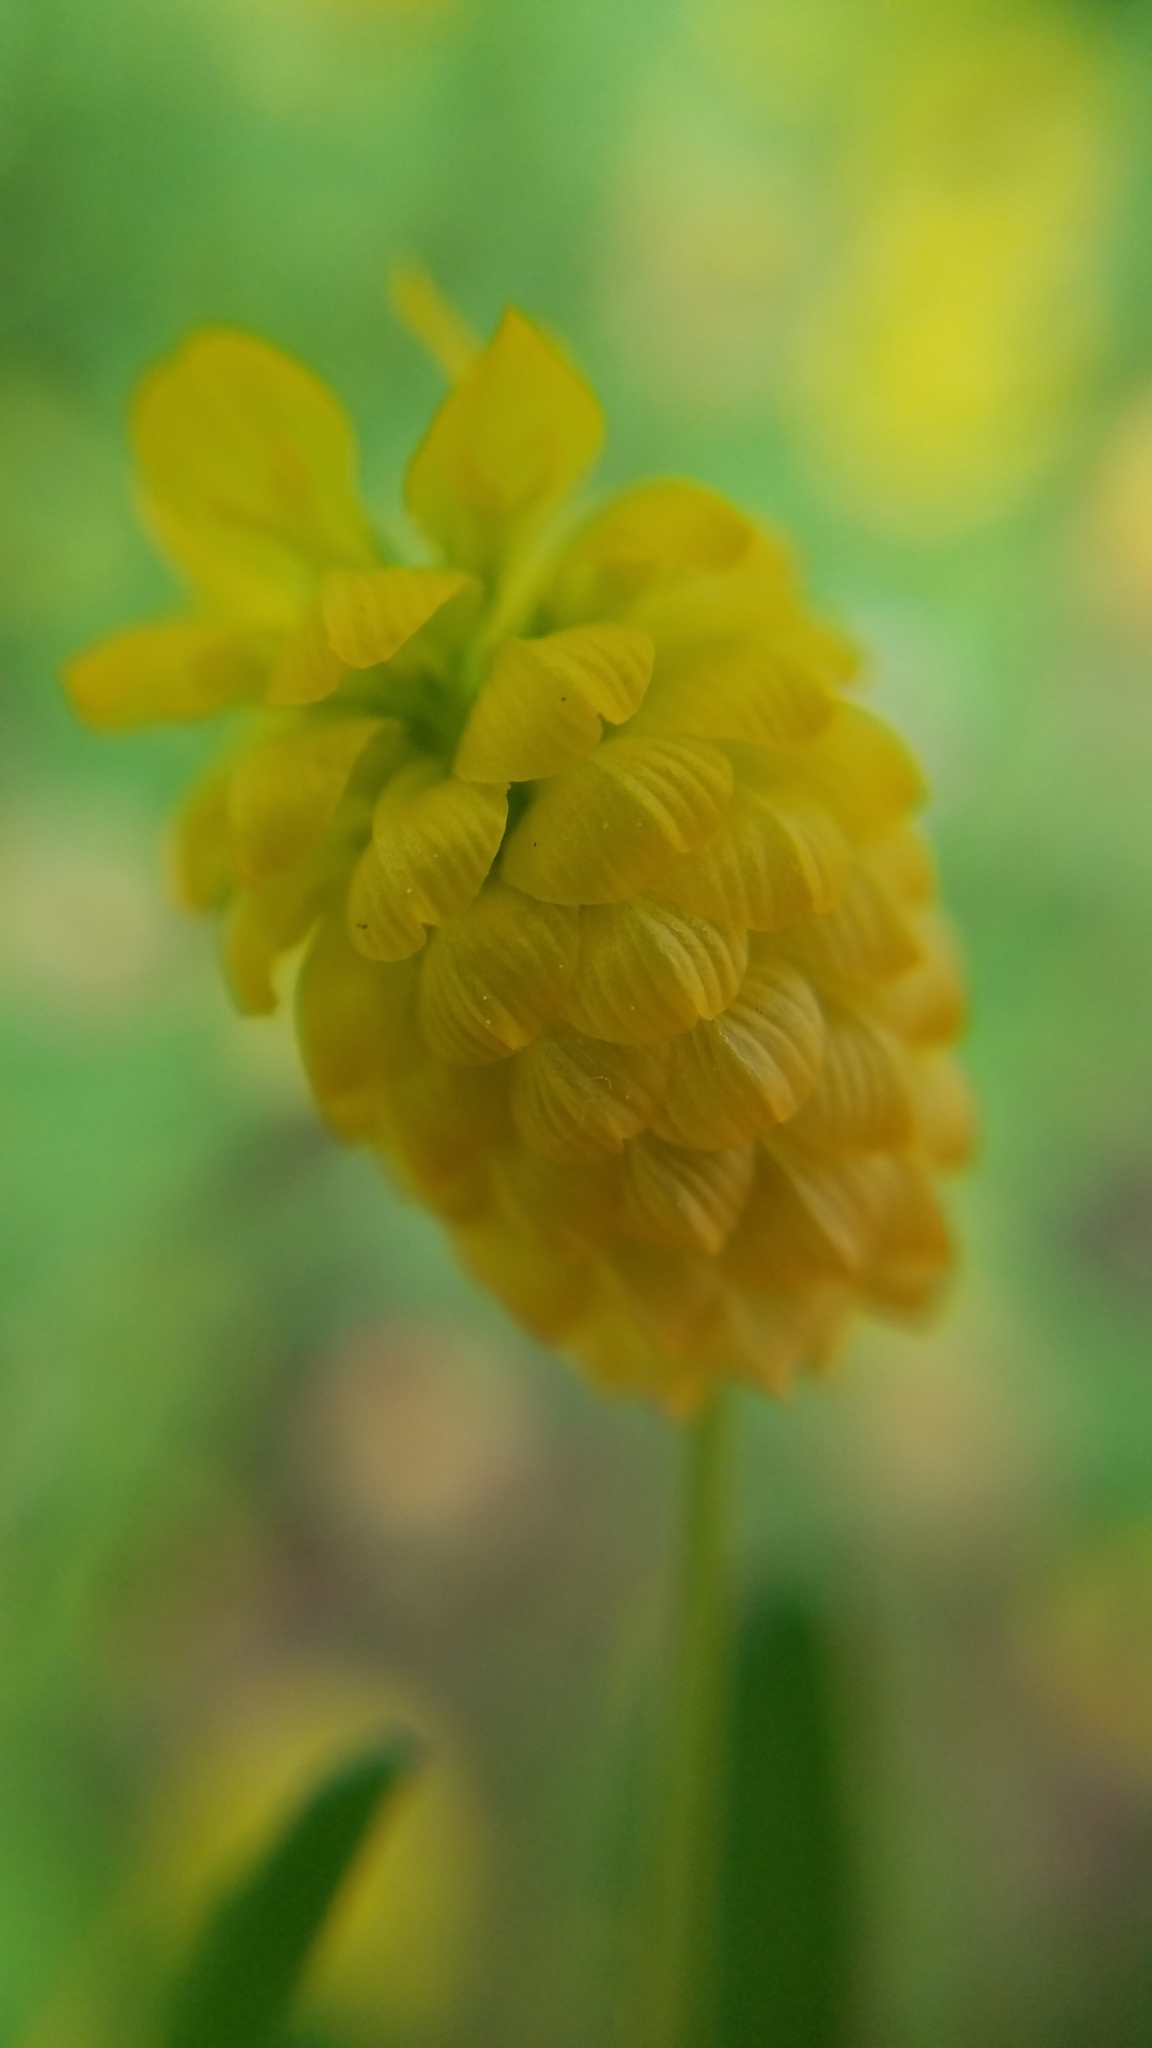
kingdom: Plantae
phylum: Tracheophyta
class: Magnoliopsida
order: Fabales
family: Fabaceae
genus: Trifolium
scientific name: Trifolium aureum
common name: Golden clover
